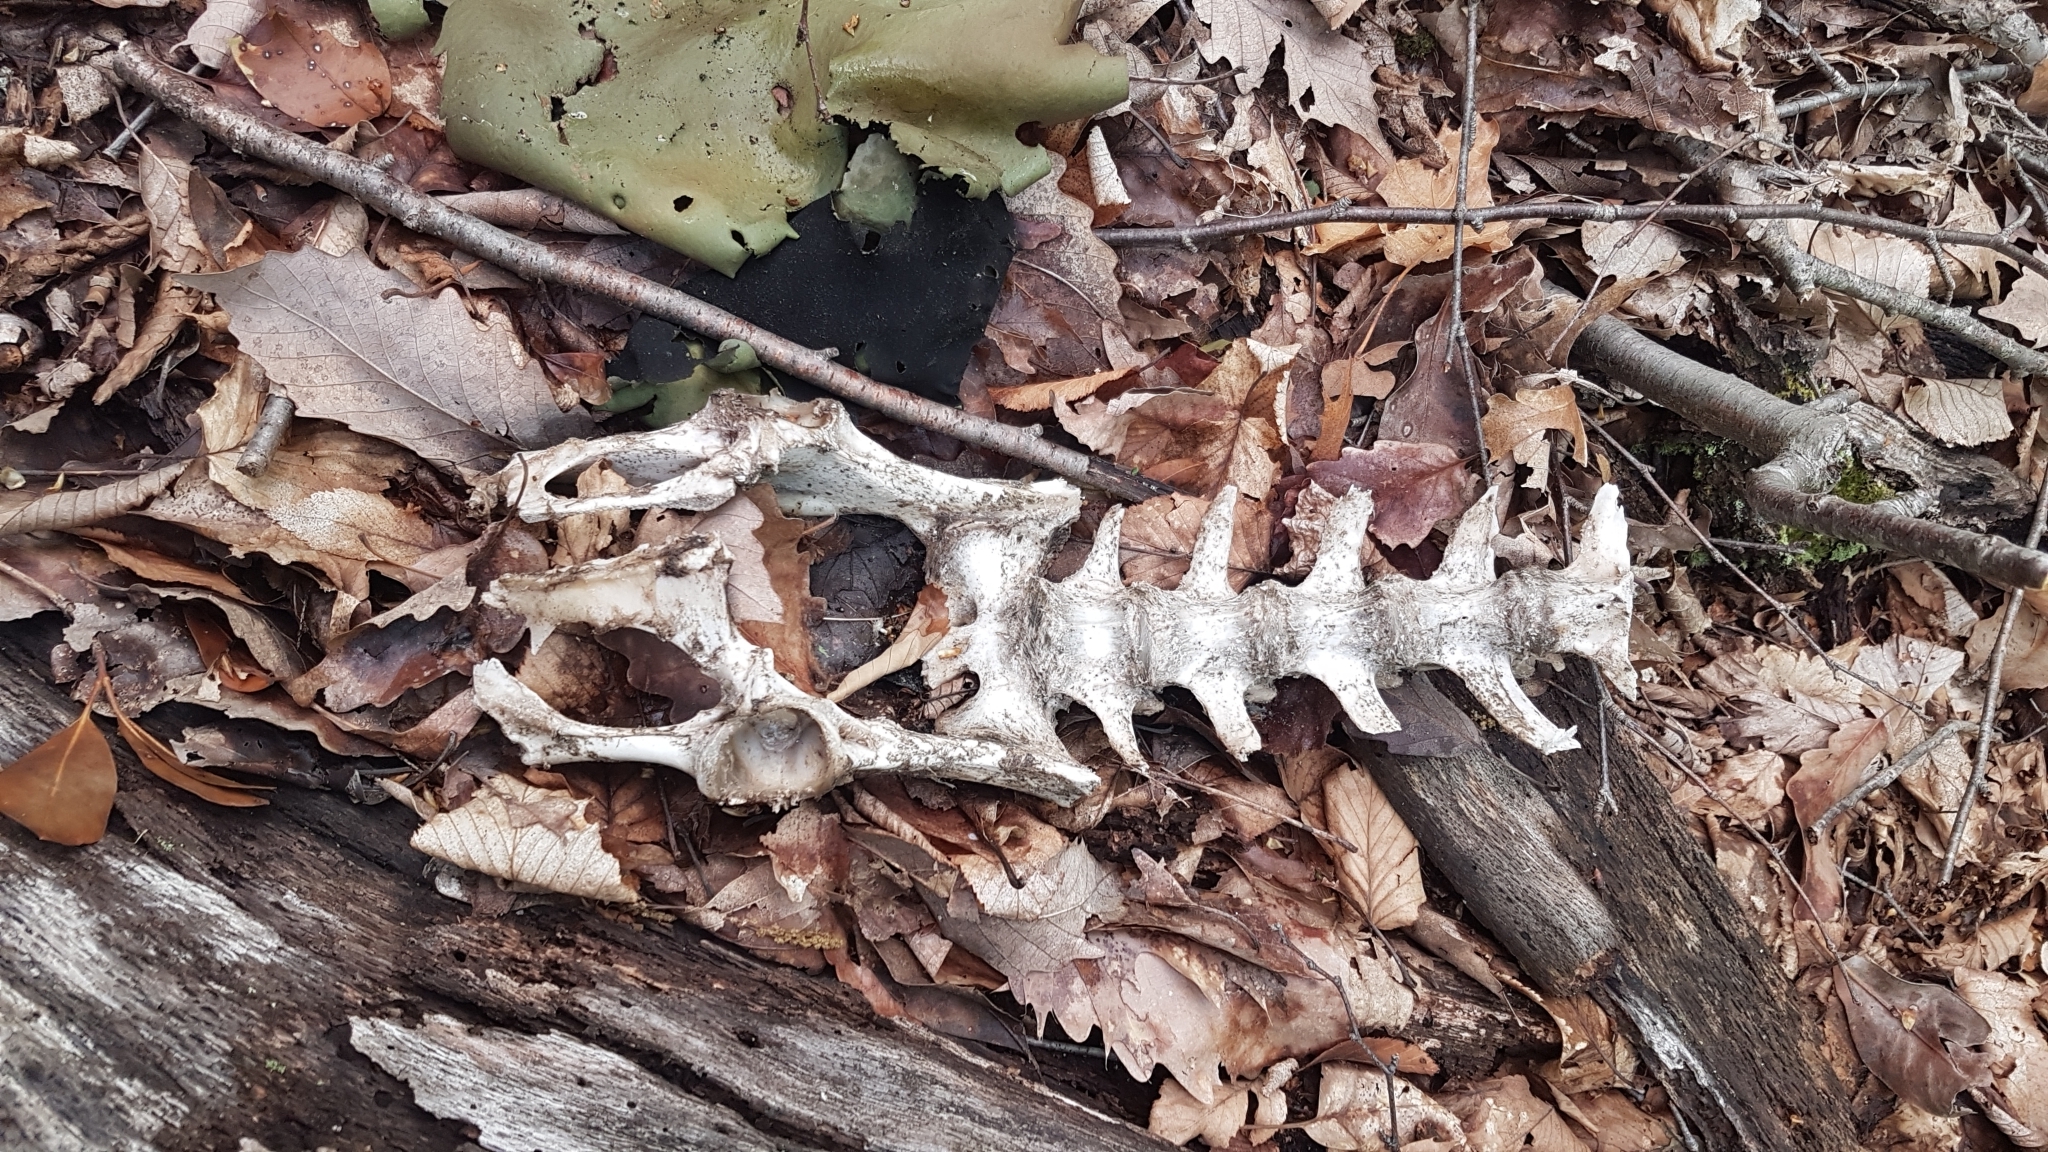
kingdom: Animalia
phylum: Chordata
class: Mammalia
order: Artiodactyla
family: Cervidae
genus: Odocoileus
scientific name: Odocoileus virginianus
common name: White-tailed deer
